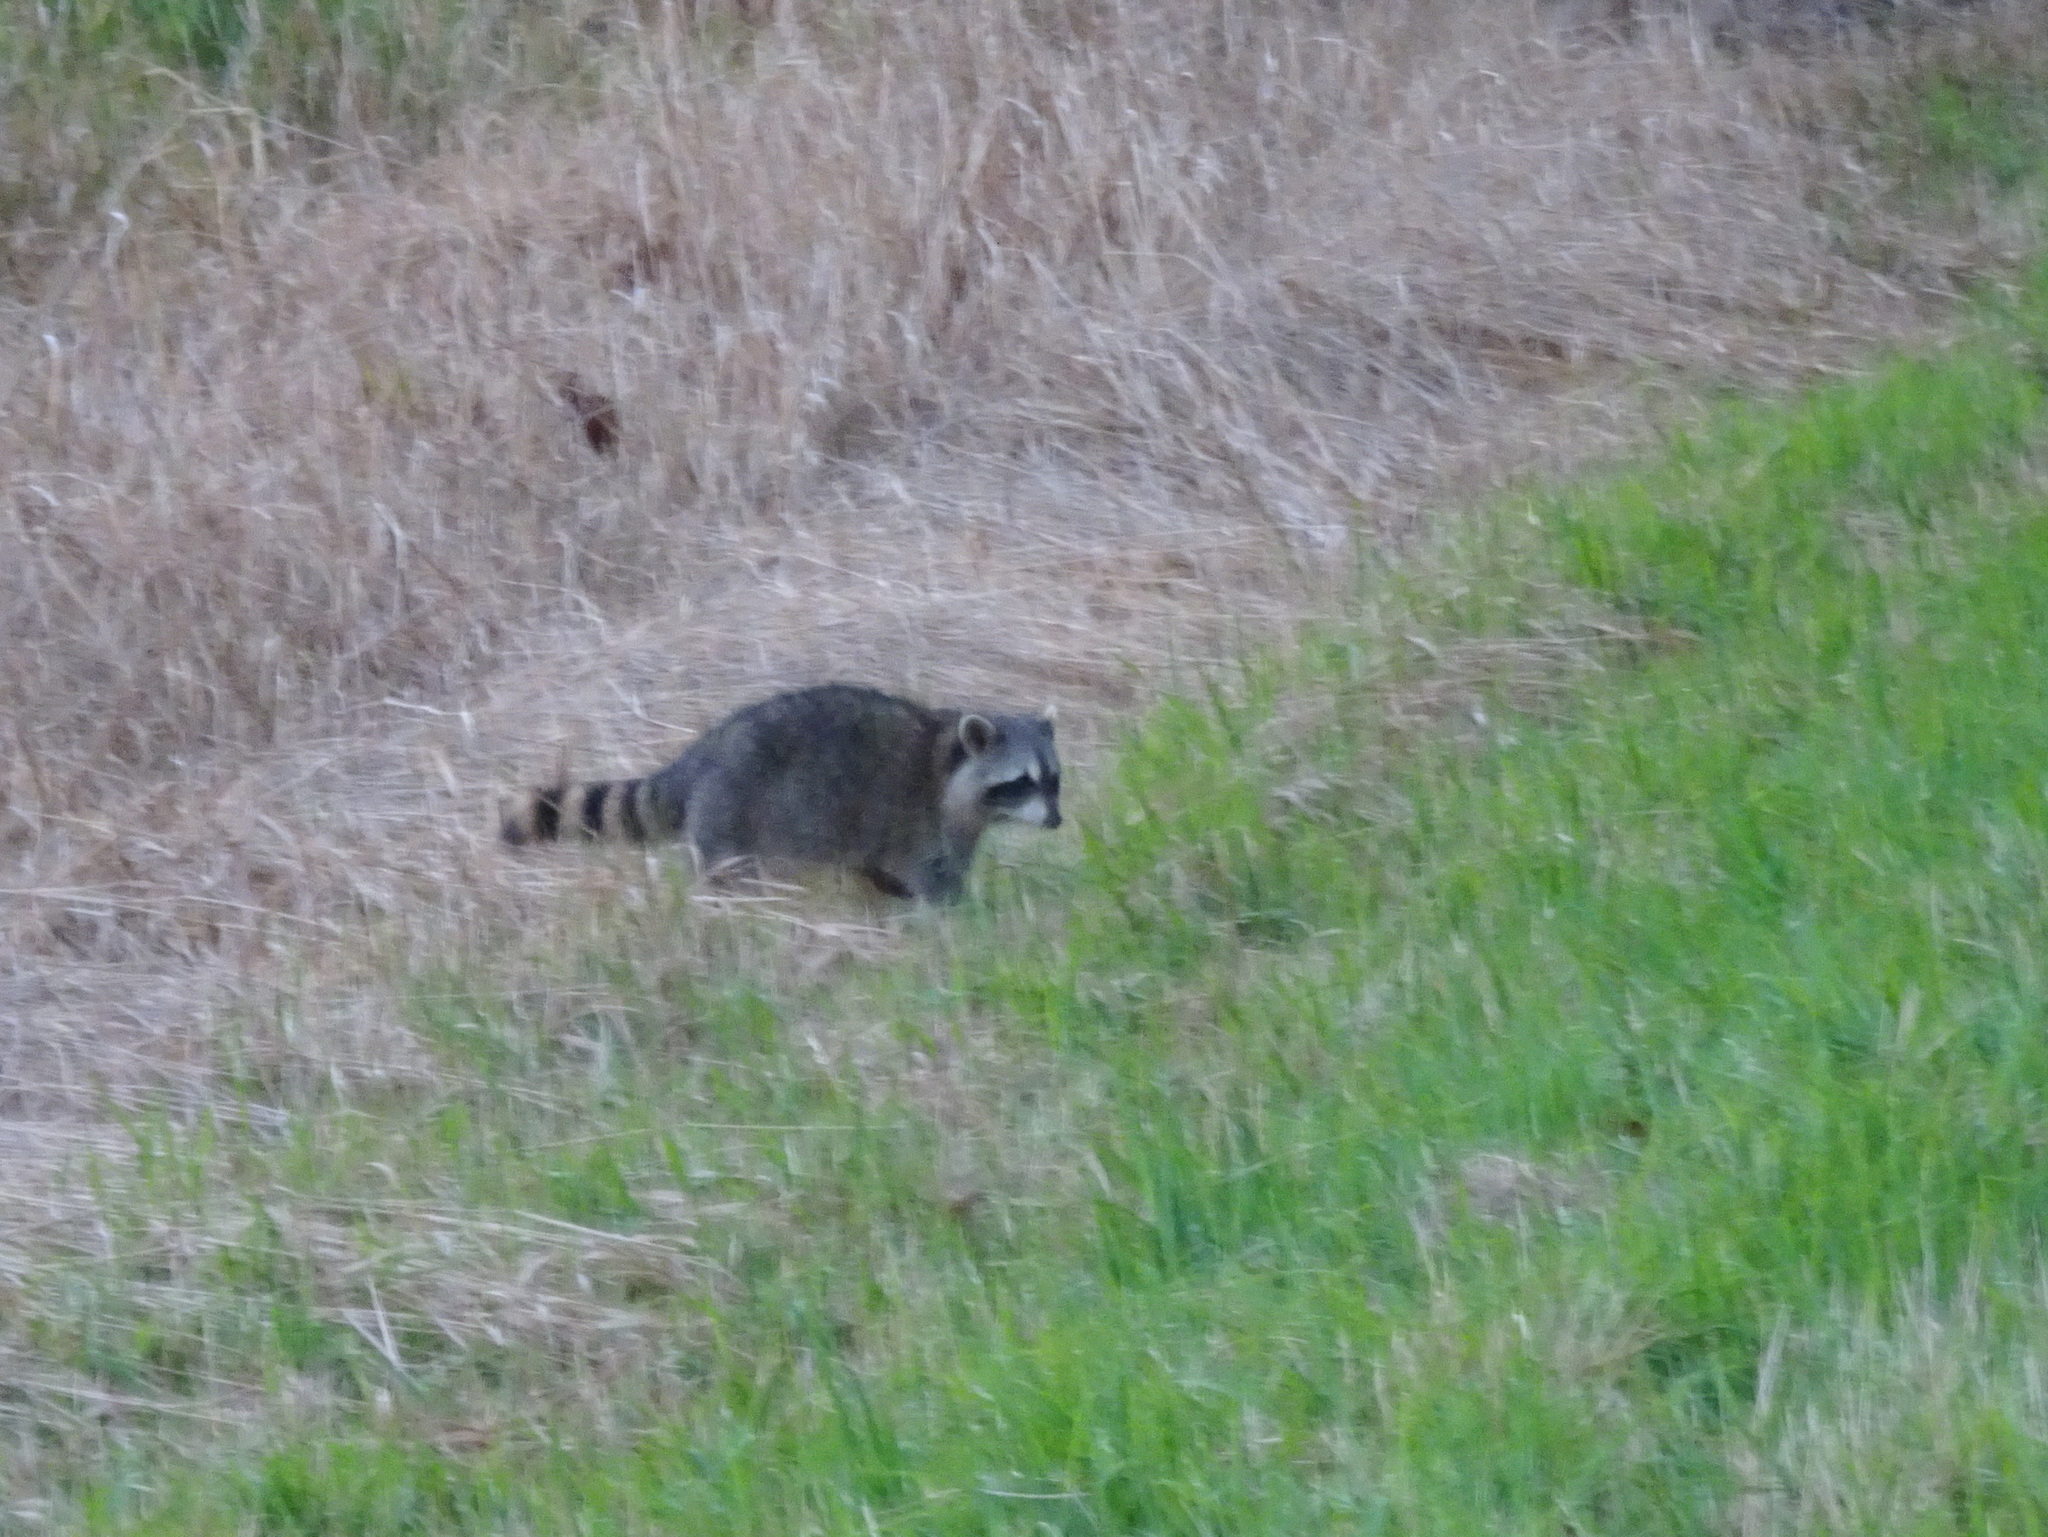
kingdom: Animalia
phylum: Chordata
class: Mammalia
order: Carnivora
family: Procyonidae
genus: Procyon
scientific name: Procyon lotor
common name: Raccoon
